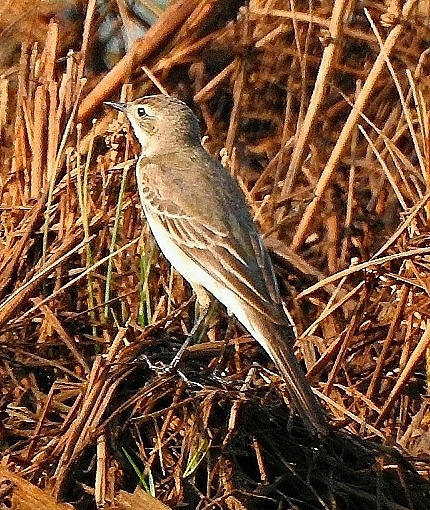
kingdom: Animalia
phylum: Chordata
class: Aves
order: Passeriformes
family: Motacillidae
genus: Motacilla
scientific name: Motacilla flava
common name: Western yellow wagtail
